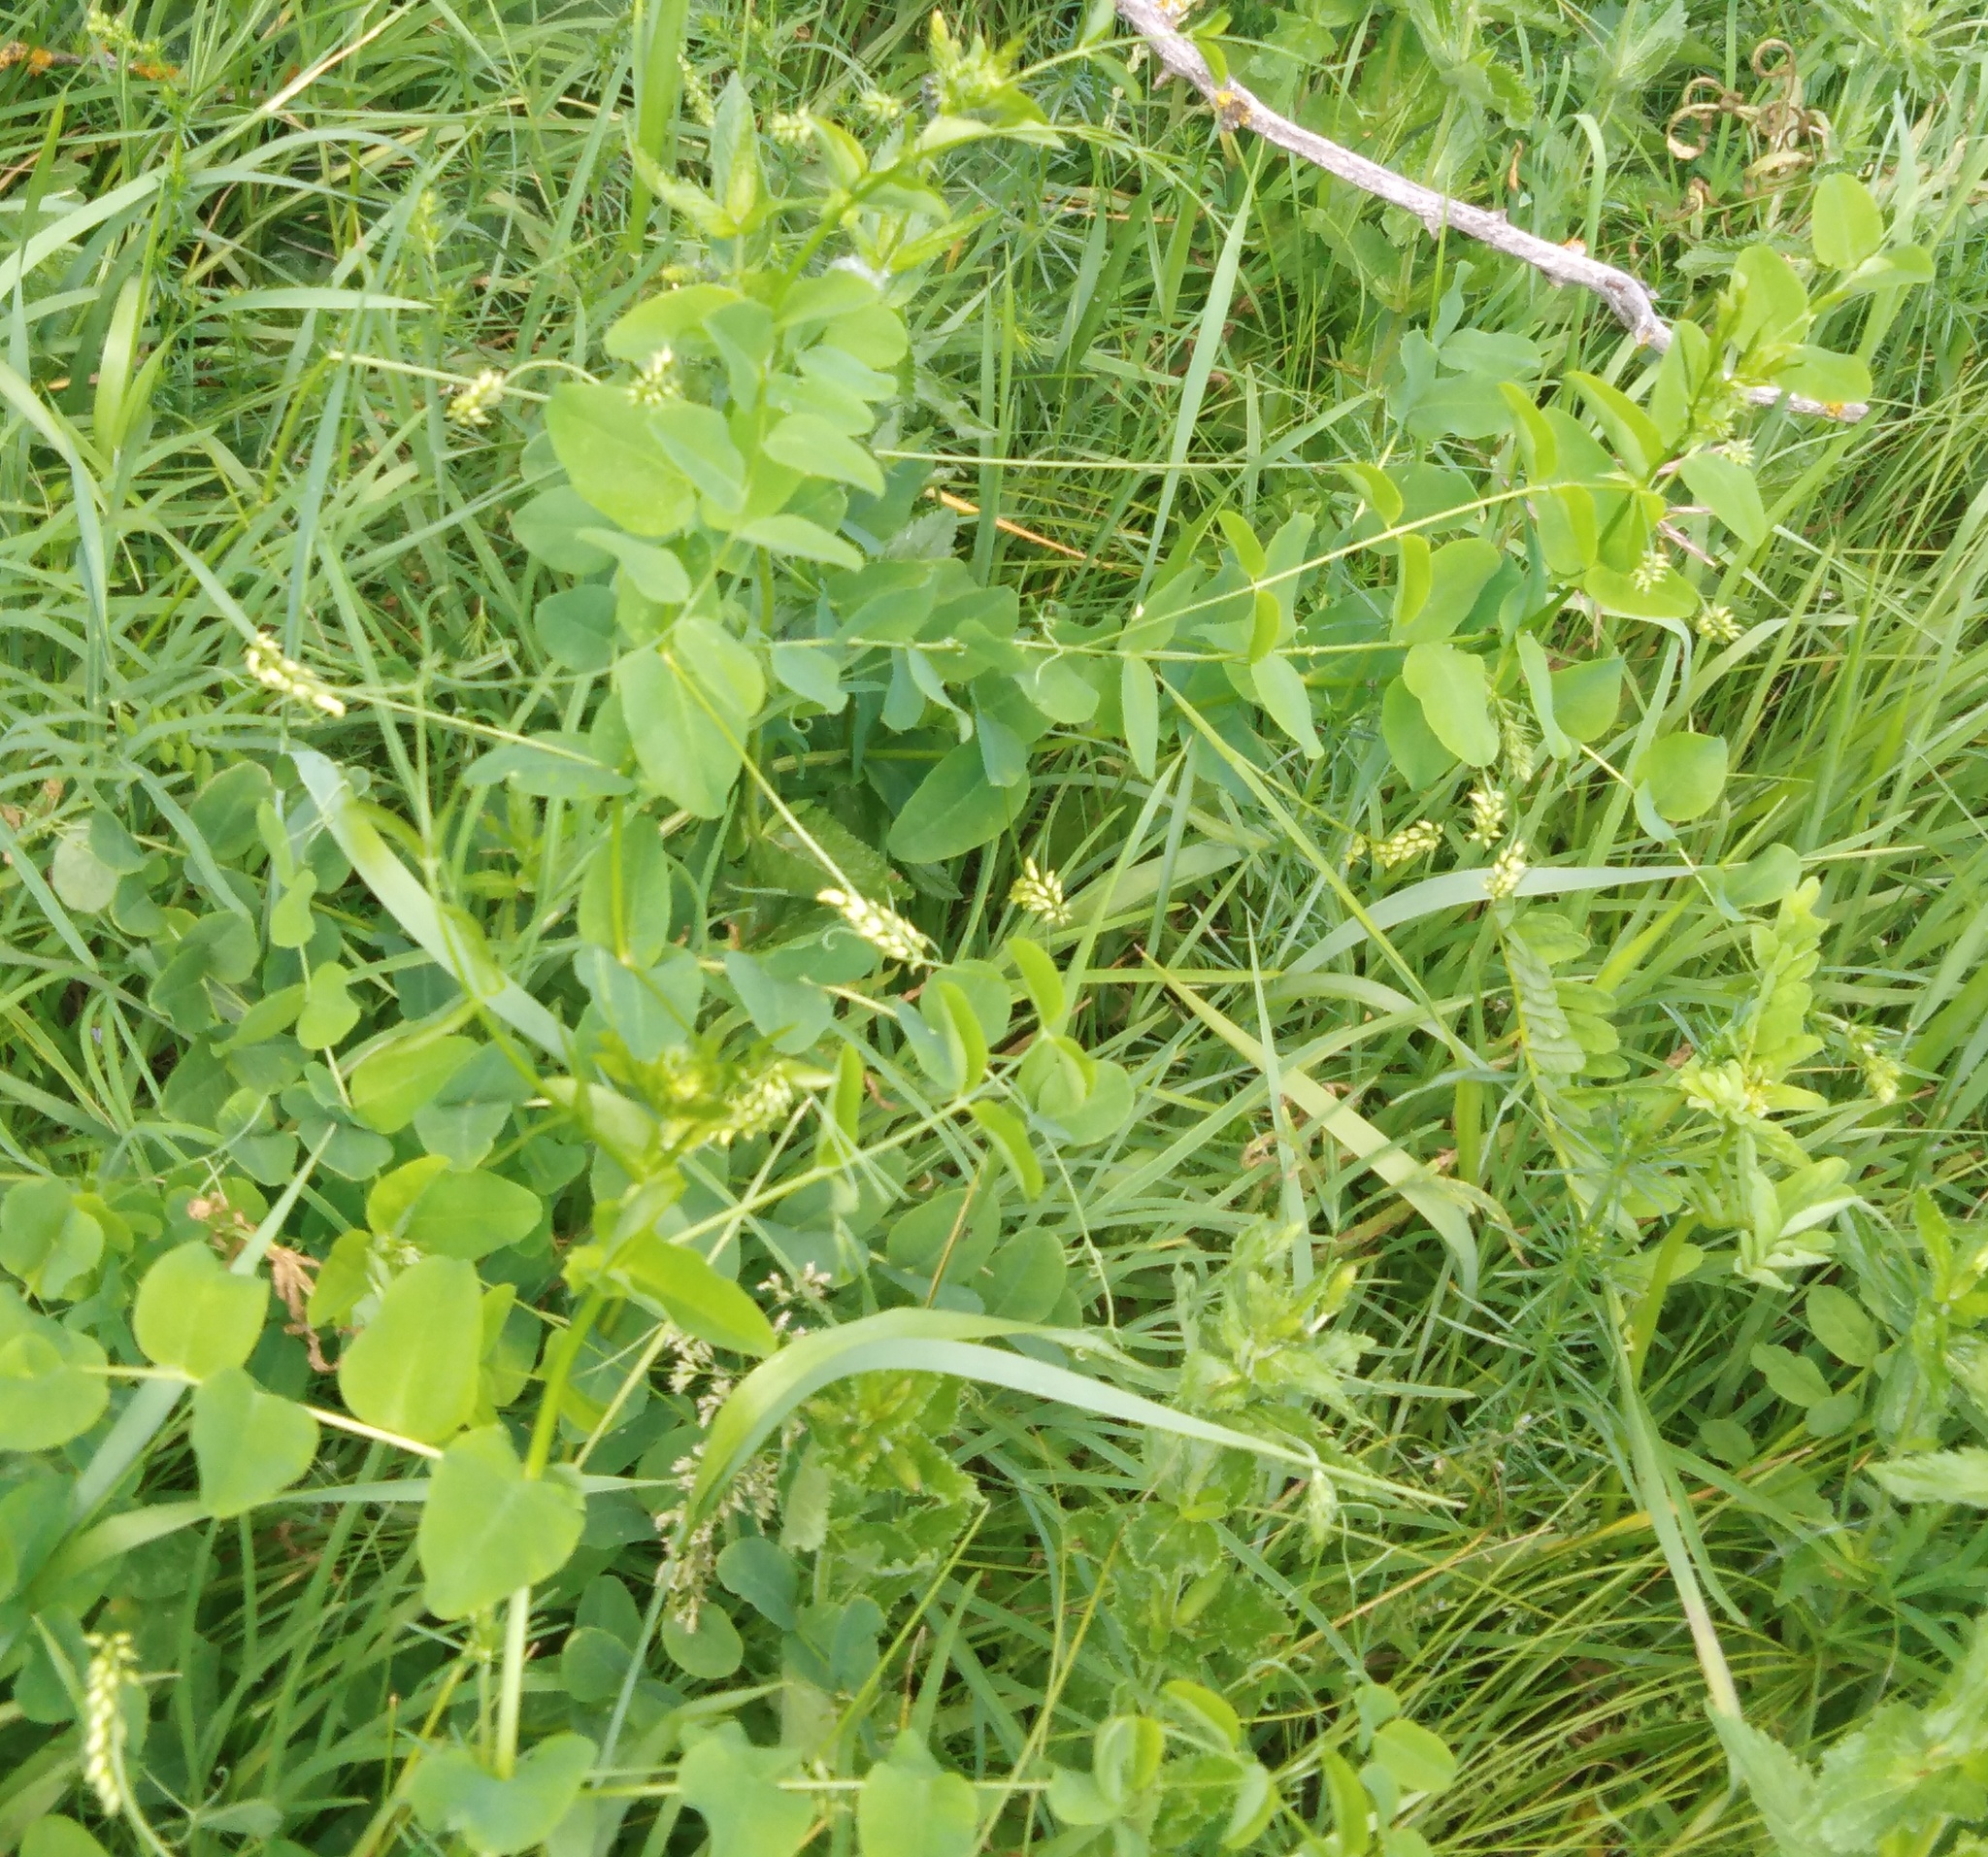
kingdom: Plantae
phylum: Tracheophyta
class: Magnoliopsida
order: Fabales
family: Fabaceae
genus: Vicia
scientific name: Vicia pisiformis
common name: Pale-flower vetch
